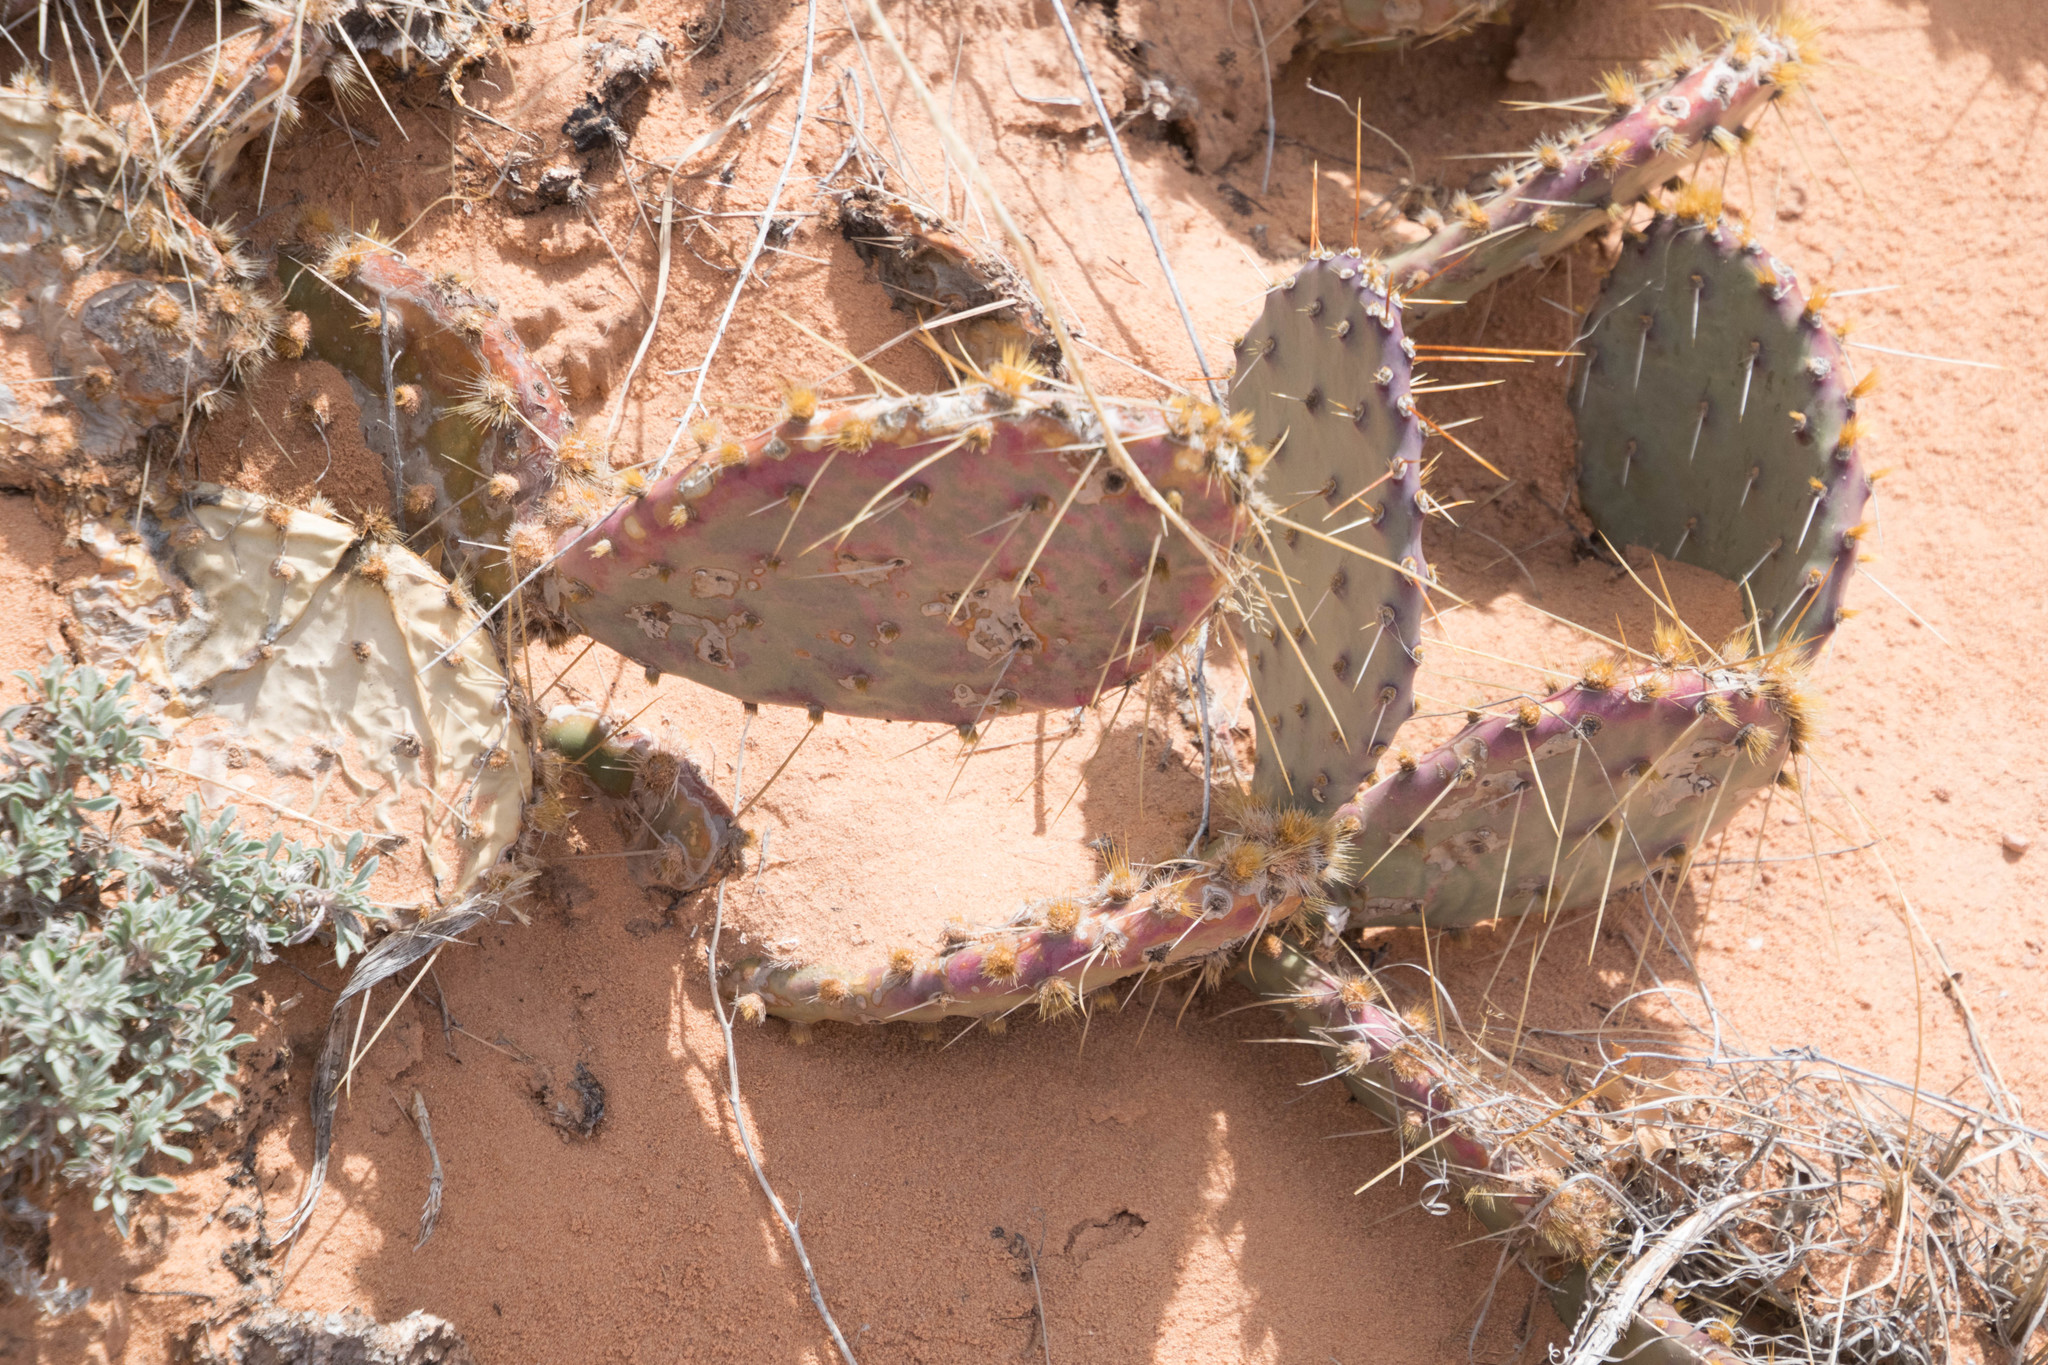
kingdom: Plantae
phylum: Tracheophyta
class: Magnoliopsida
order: Caryophyllales
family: Cactaceae
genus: Opuntia
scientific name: Opuntia phaeacantha
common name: New mexico prickly-pear
